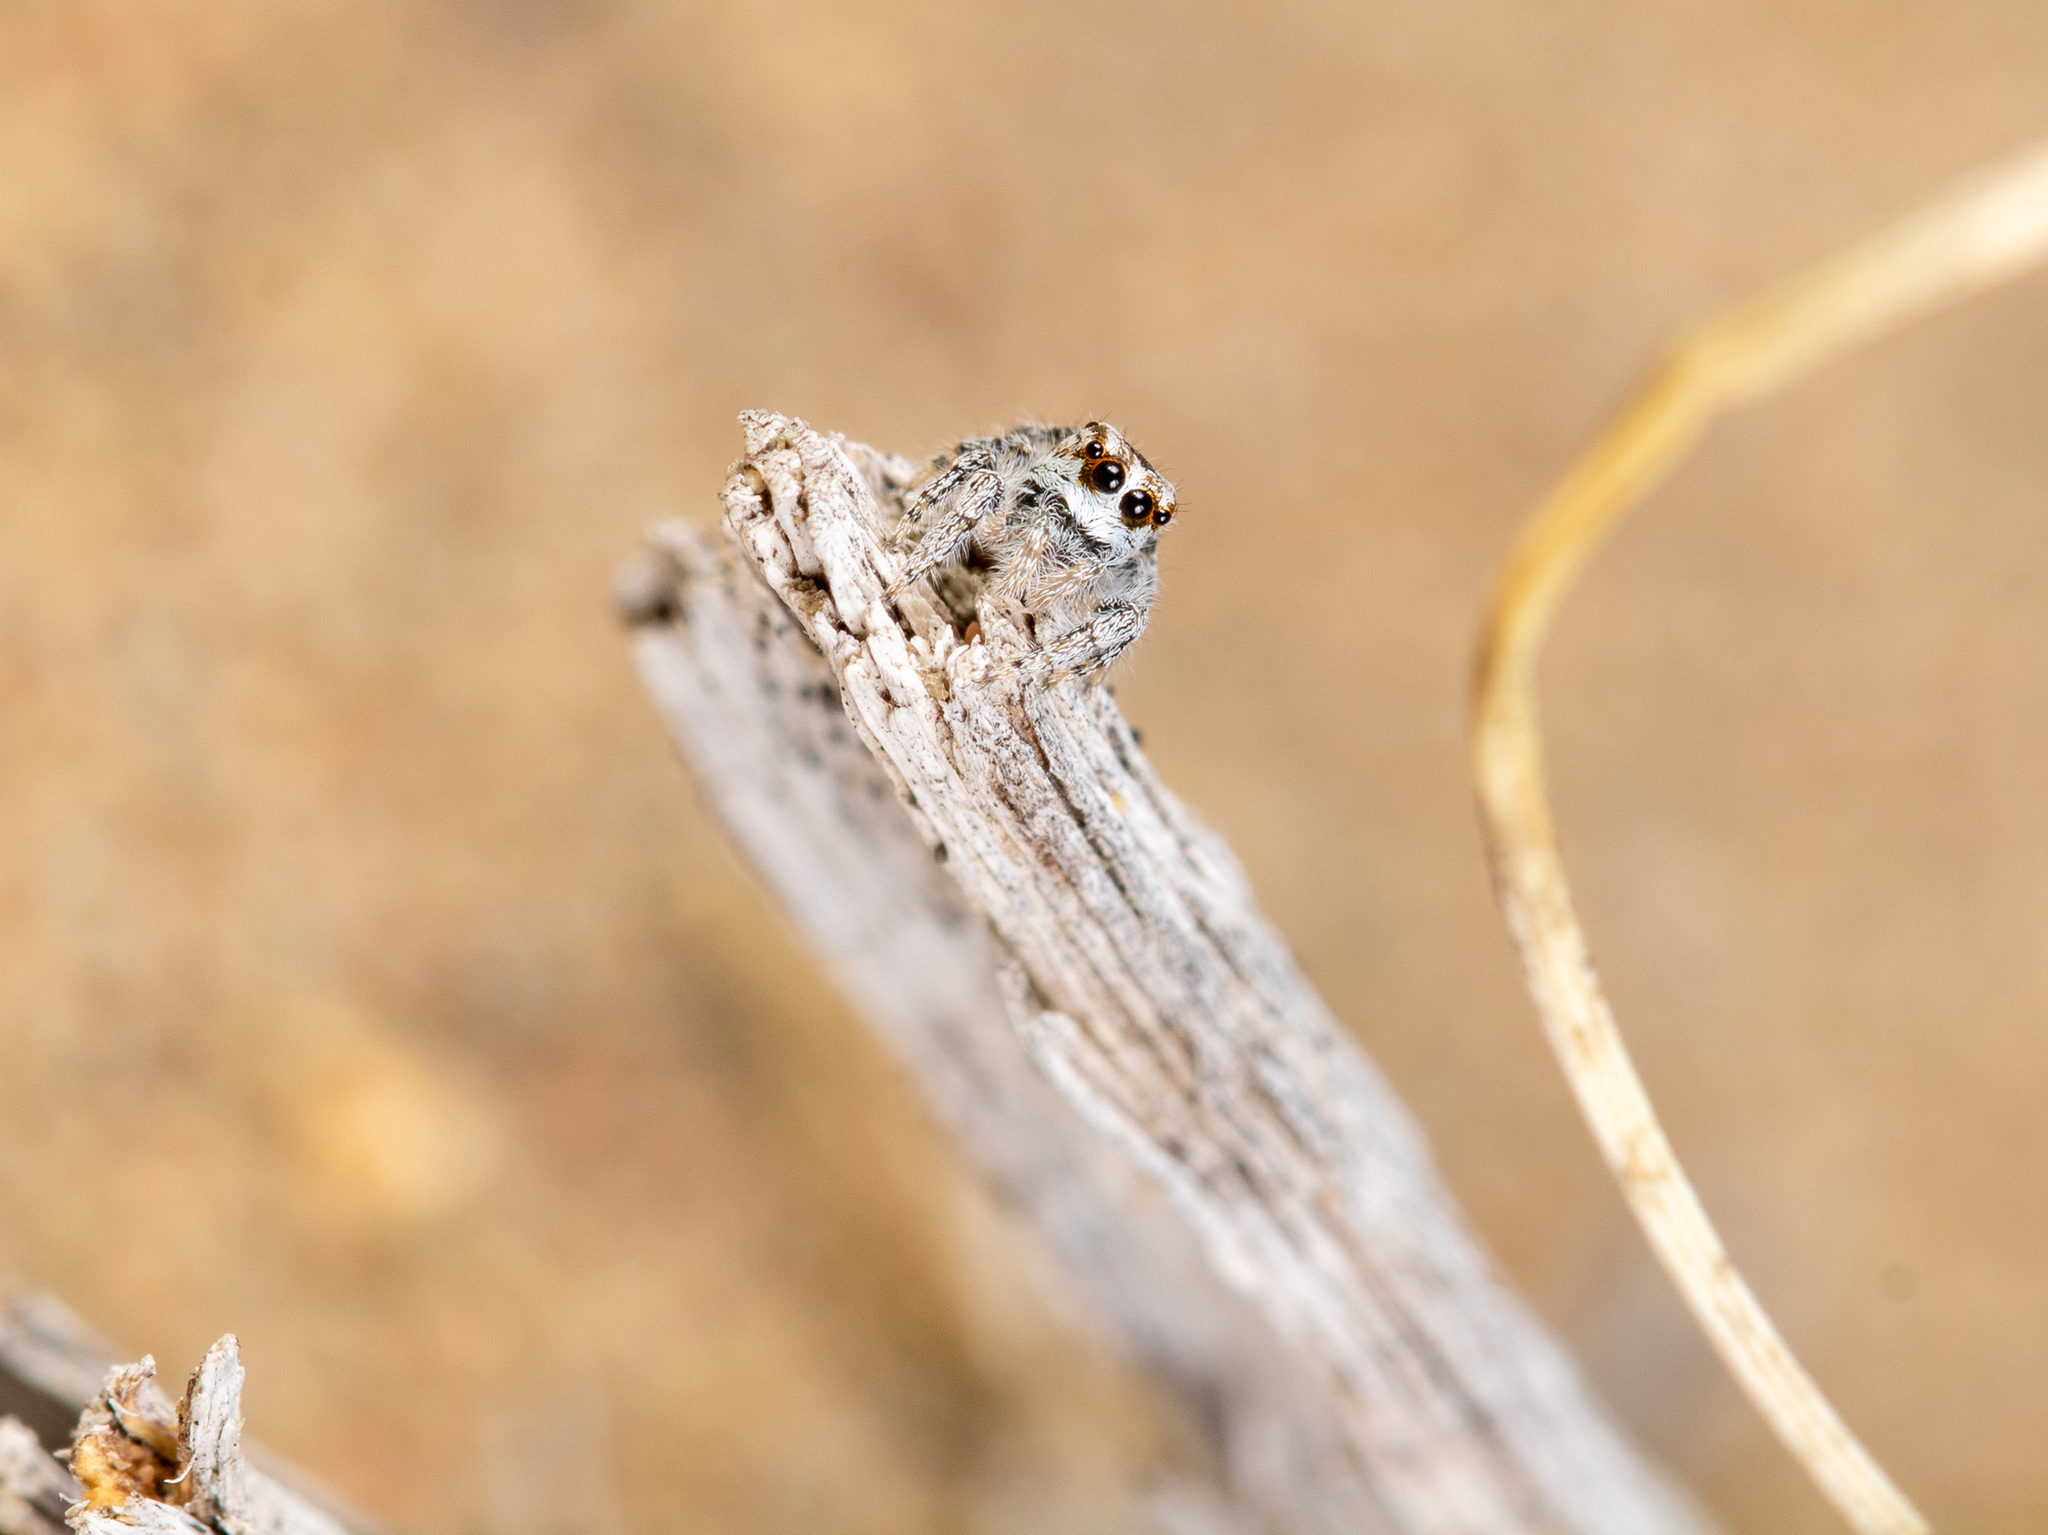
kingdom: Animalia
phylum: Arthropoda
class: Arachnida
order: Araneae
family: Salticidae
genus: Marusyllus
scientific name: Marusyllus aralicus
